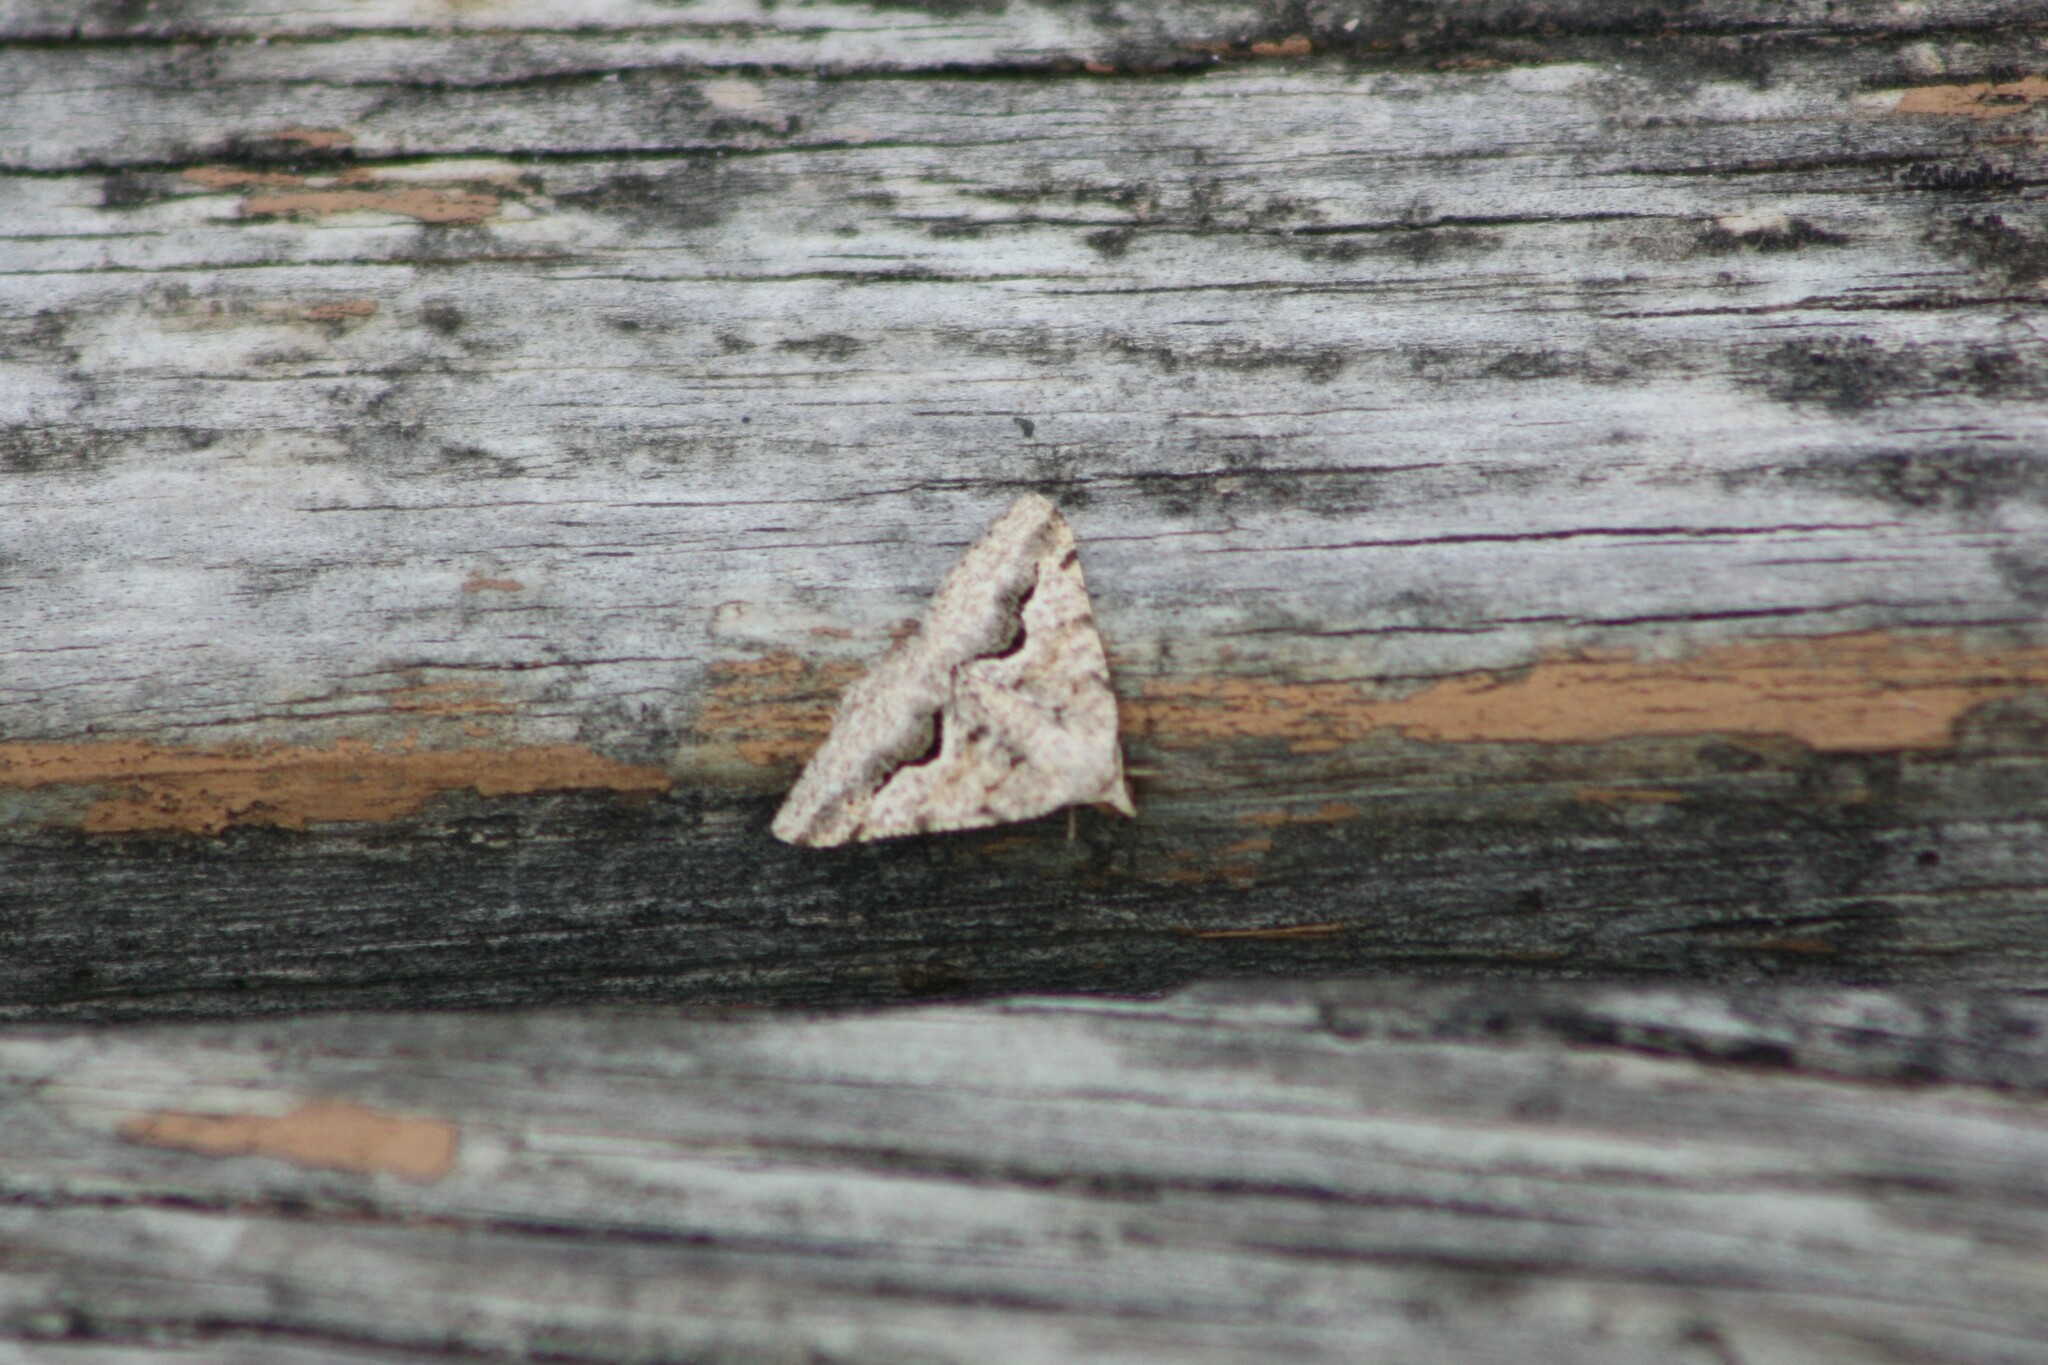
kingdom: Animalia
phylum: Arthropoda
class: Insecta
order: Lepidoptera
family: Geometridae
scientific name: Geometridae
